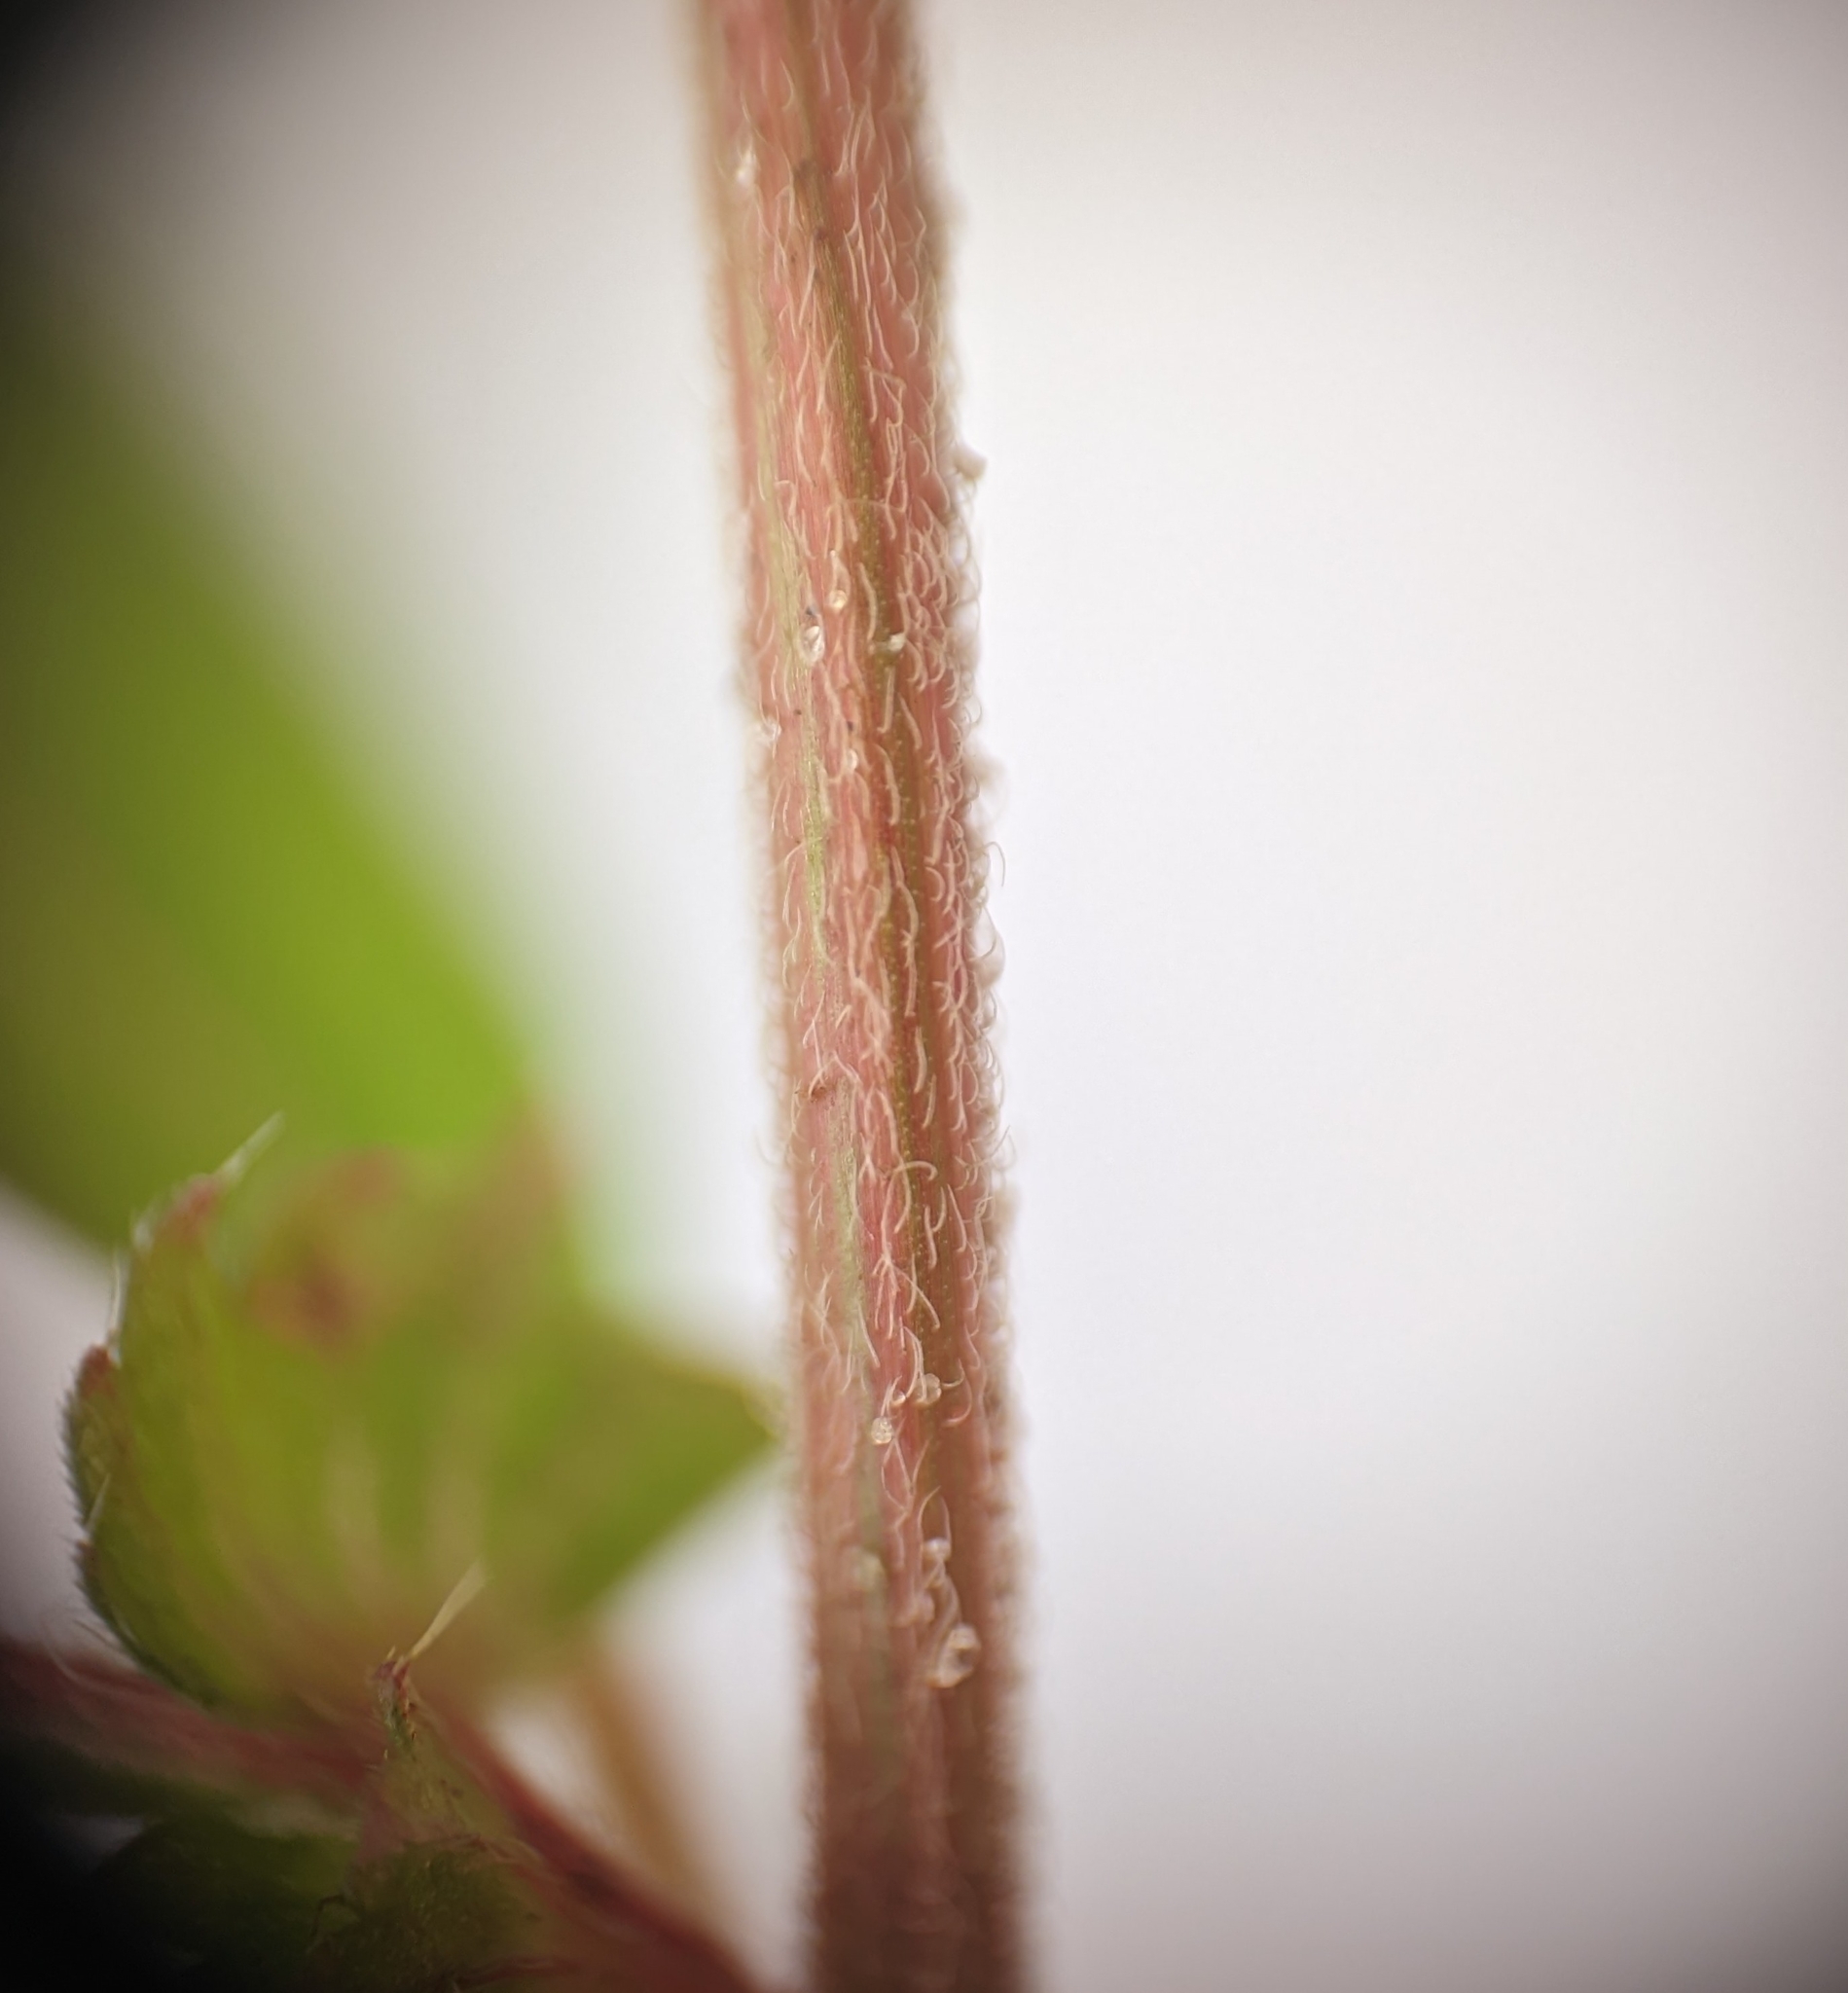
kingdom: Plantae
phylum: Tracheophyta
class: Magnoliopsida
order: Malpighiales
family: Euphorbiaceae
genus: Acalypha
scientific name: Acalypha gracilens
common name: Slender three-seeded mercury
